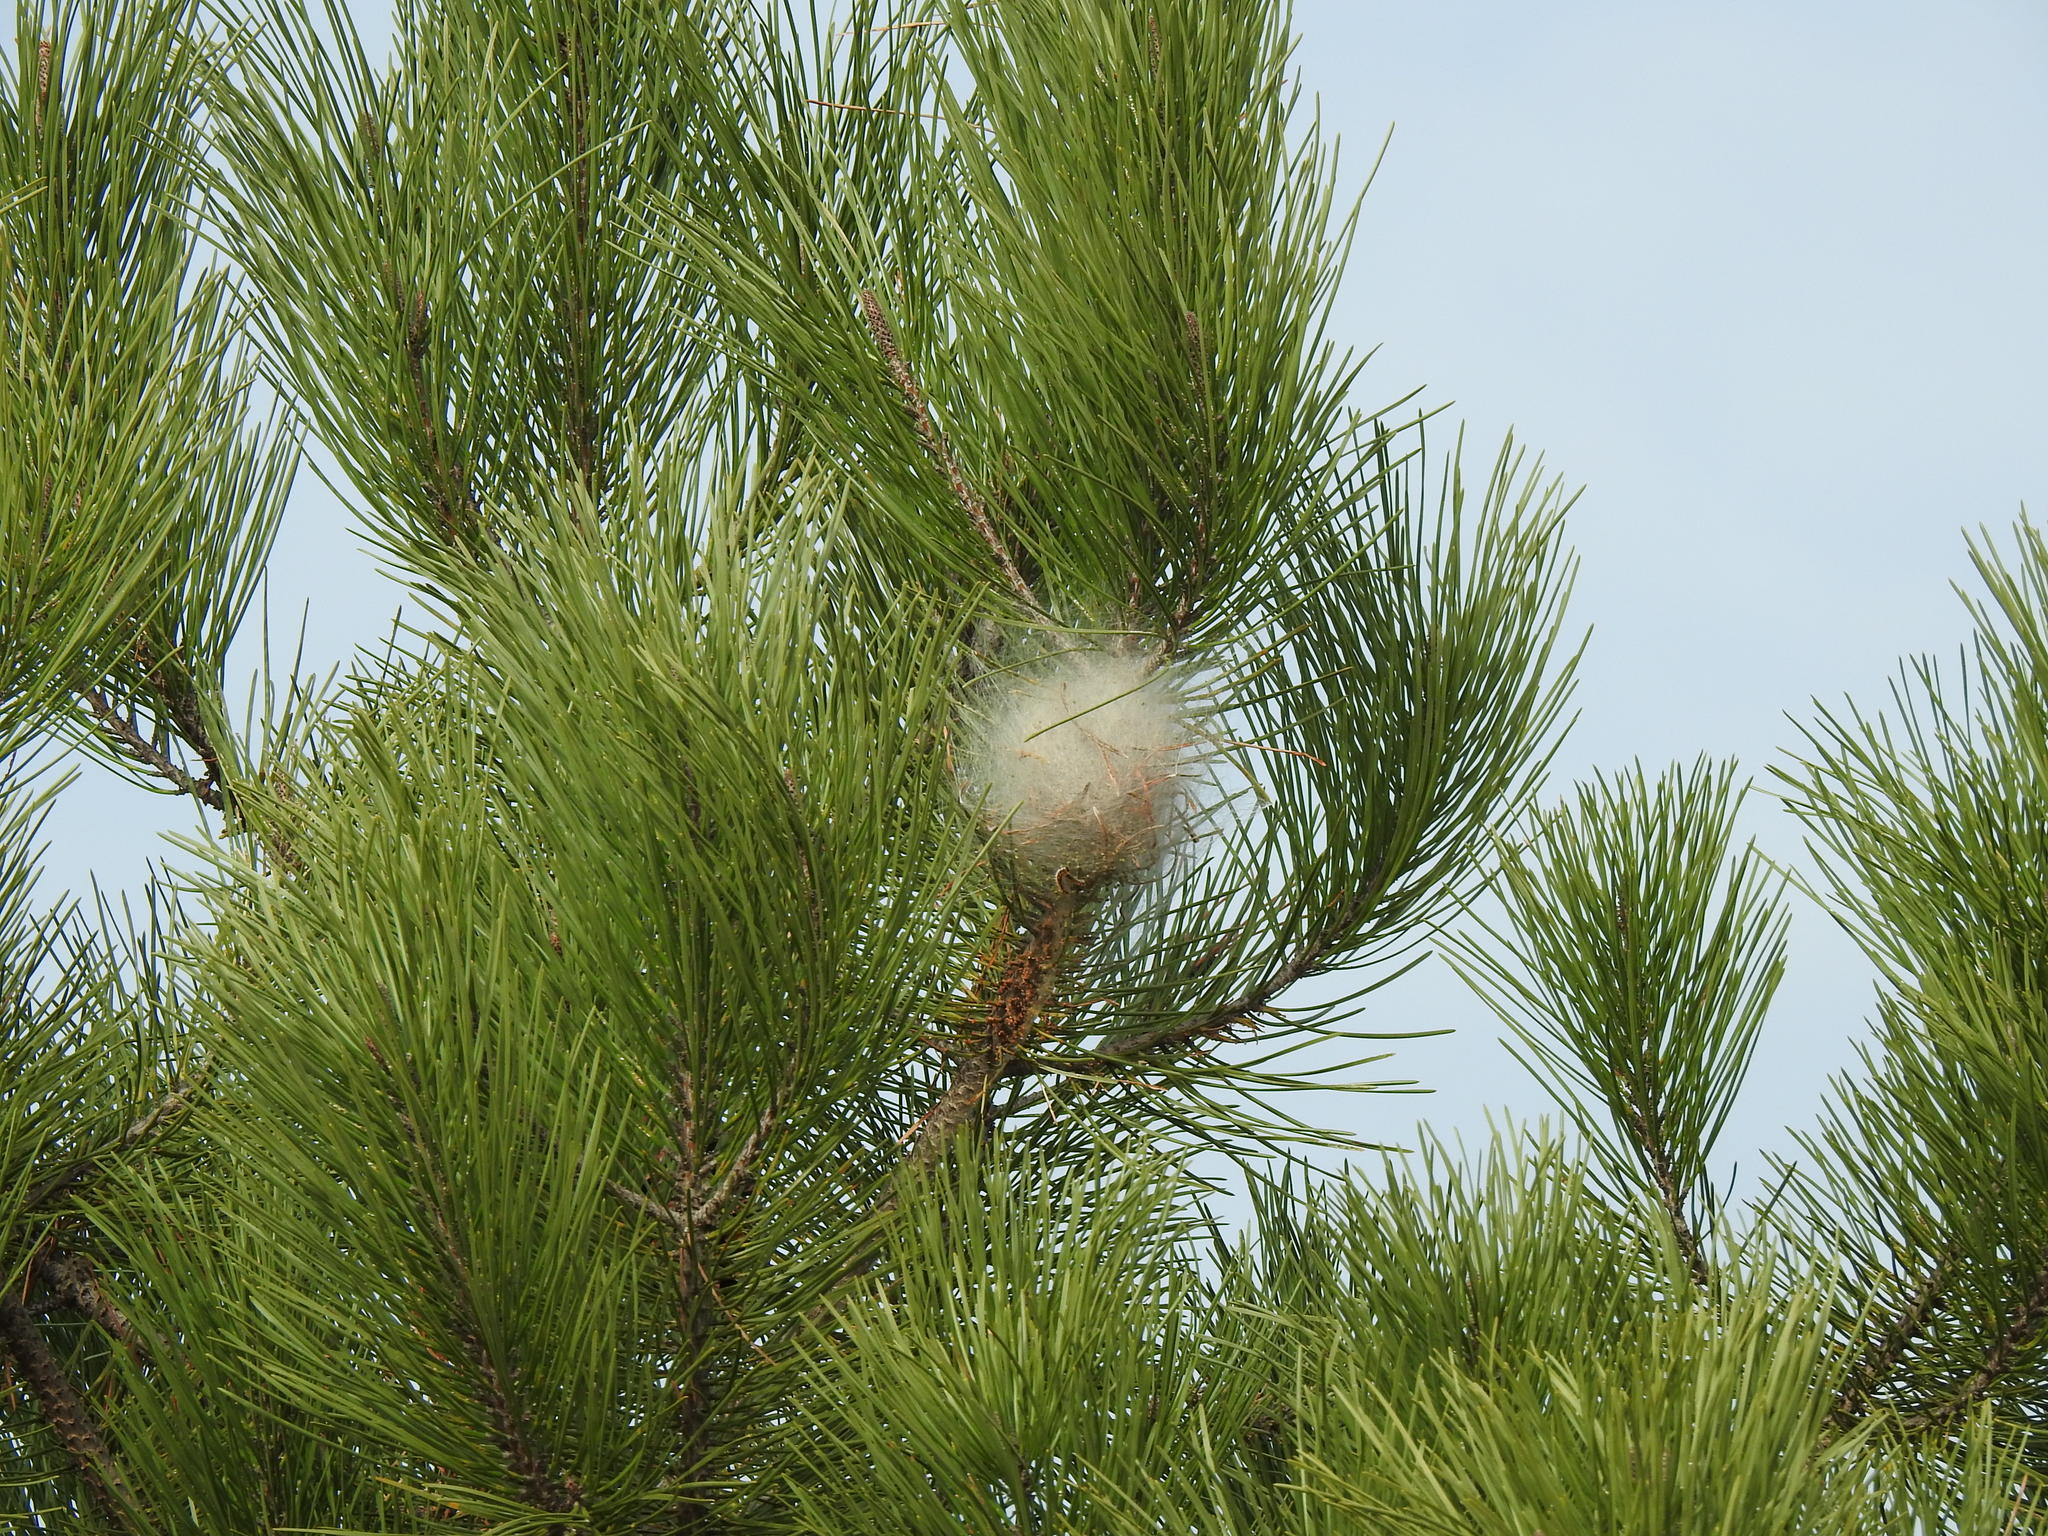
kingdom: Animalia
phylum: Arthropoda
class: Insecta
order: Lepidoptera
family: Notodontidae
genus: Thaumetopoea
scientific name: Thaumetopoea pityocampa
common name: Pine processionary
